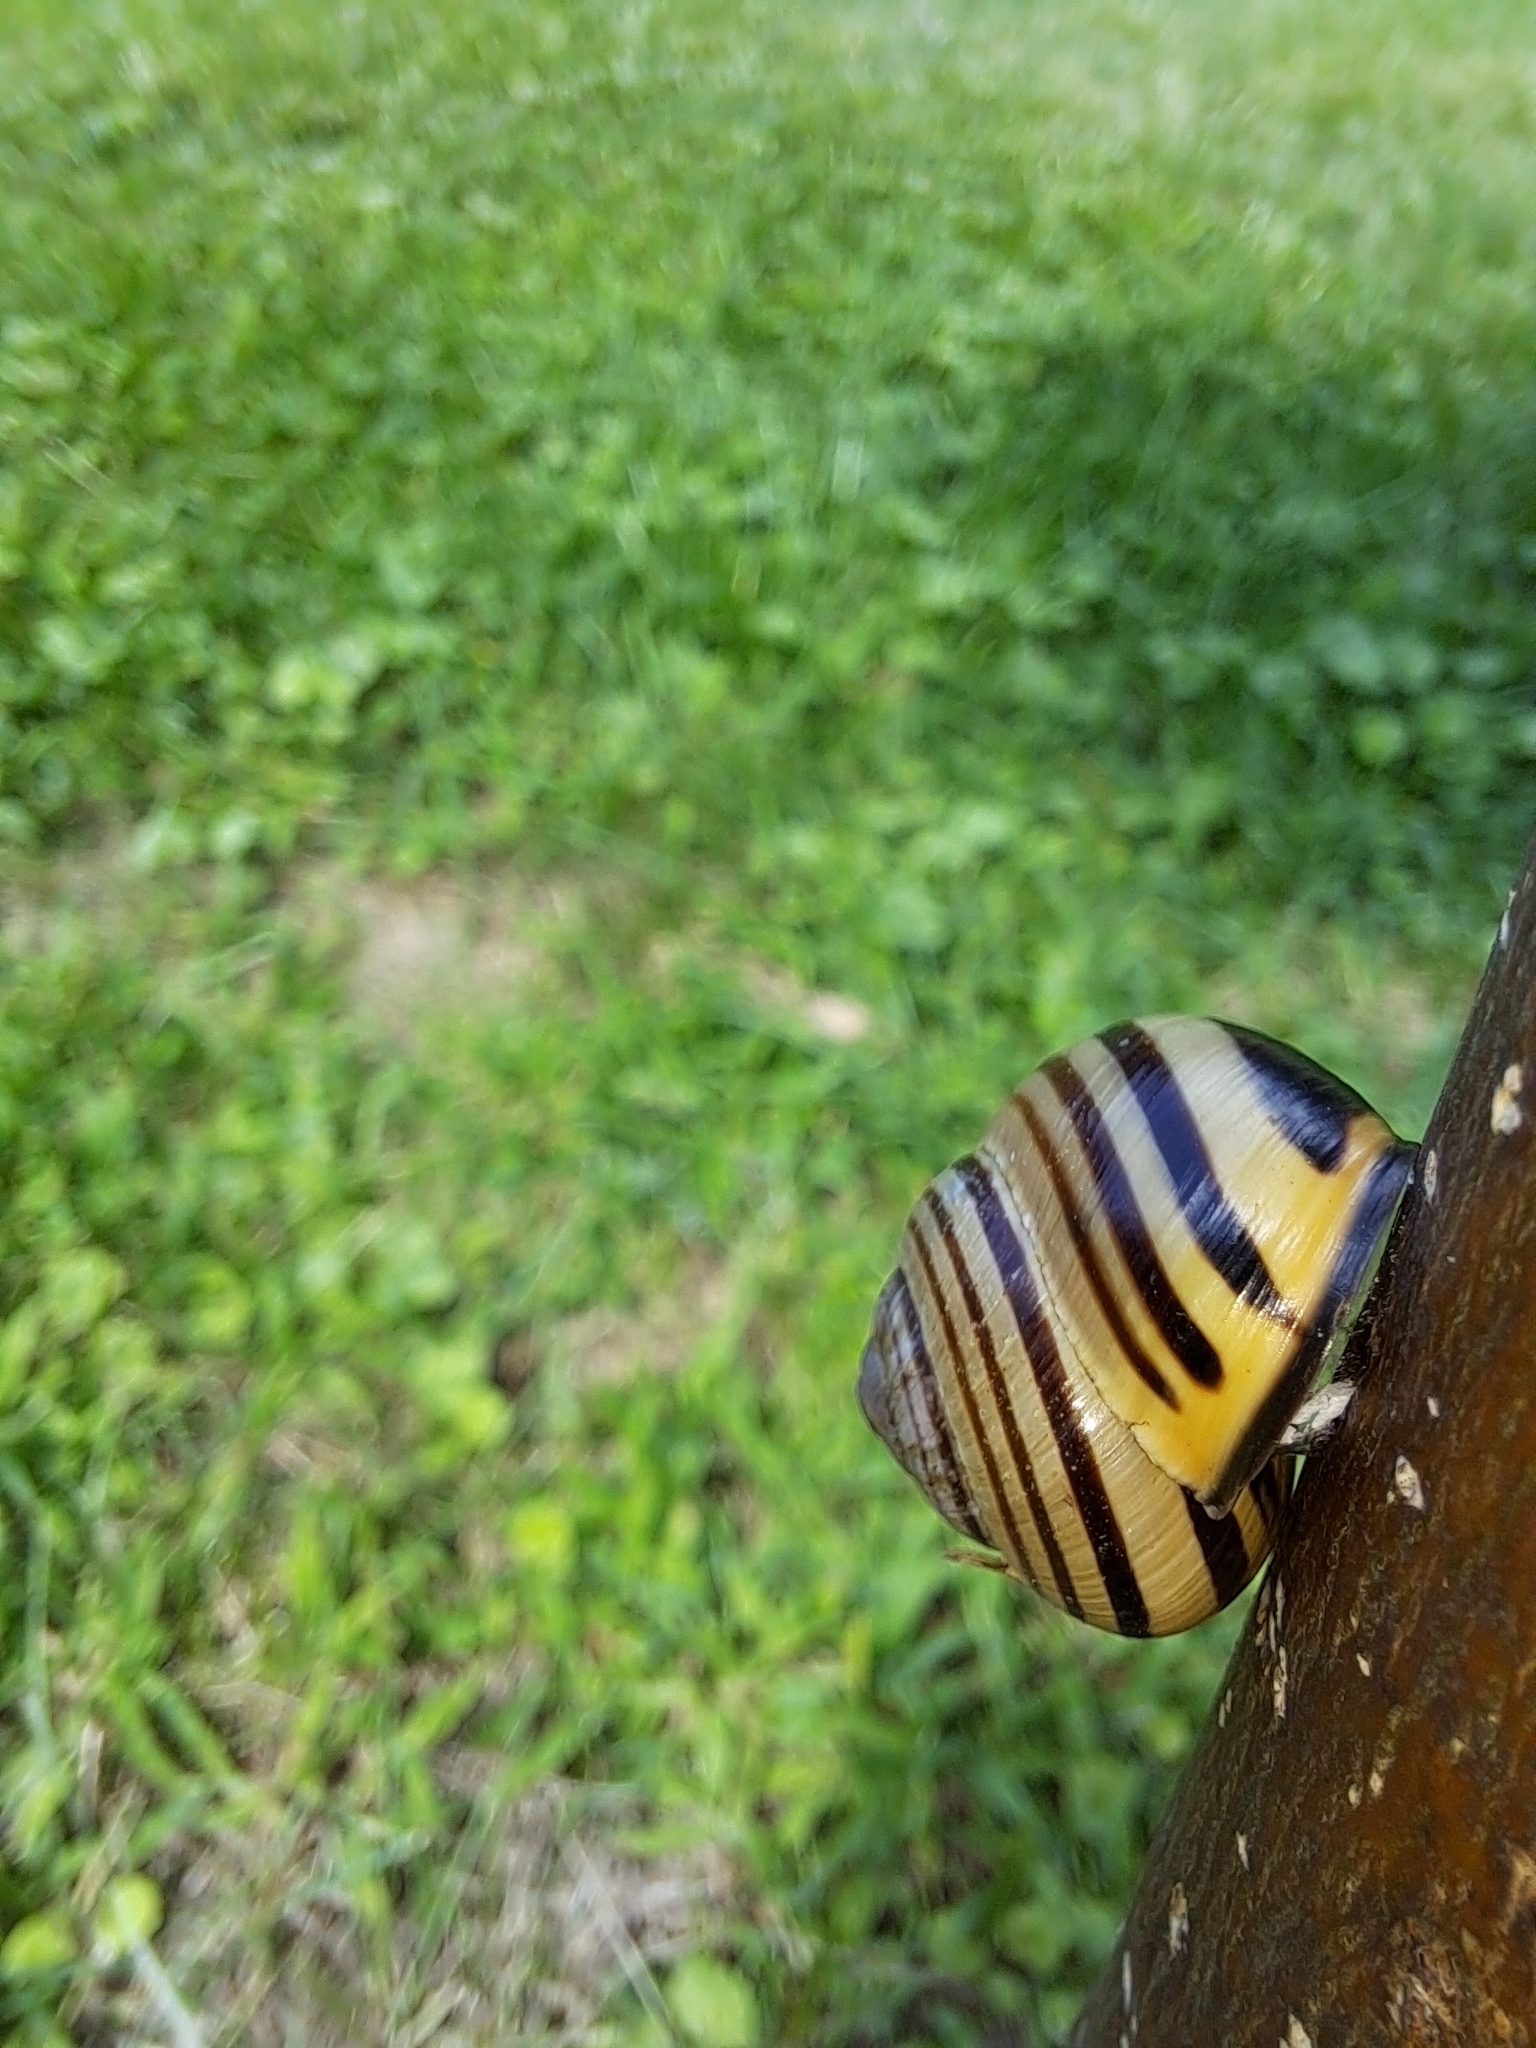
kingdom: Animalia
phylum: Mollusca
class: Gastropoda
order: Stylommatophora
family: Helicidae
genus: Cepaea
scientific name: Cepaea nemoralis
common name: Grovesnail
